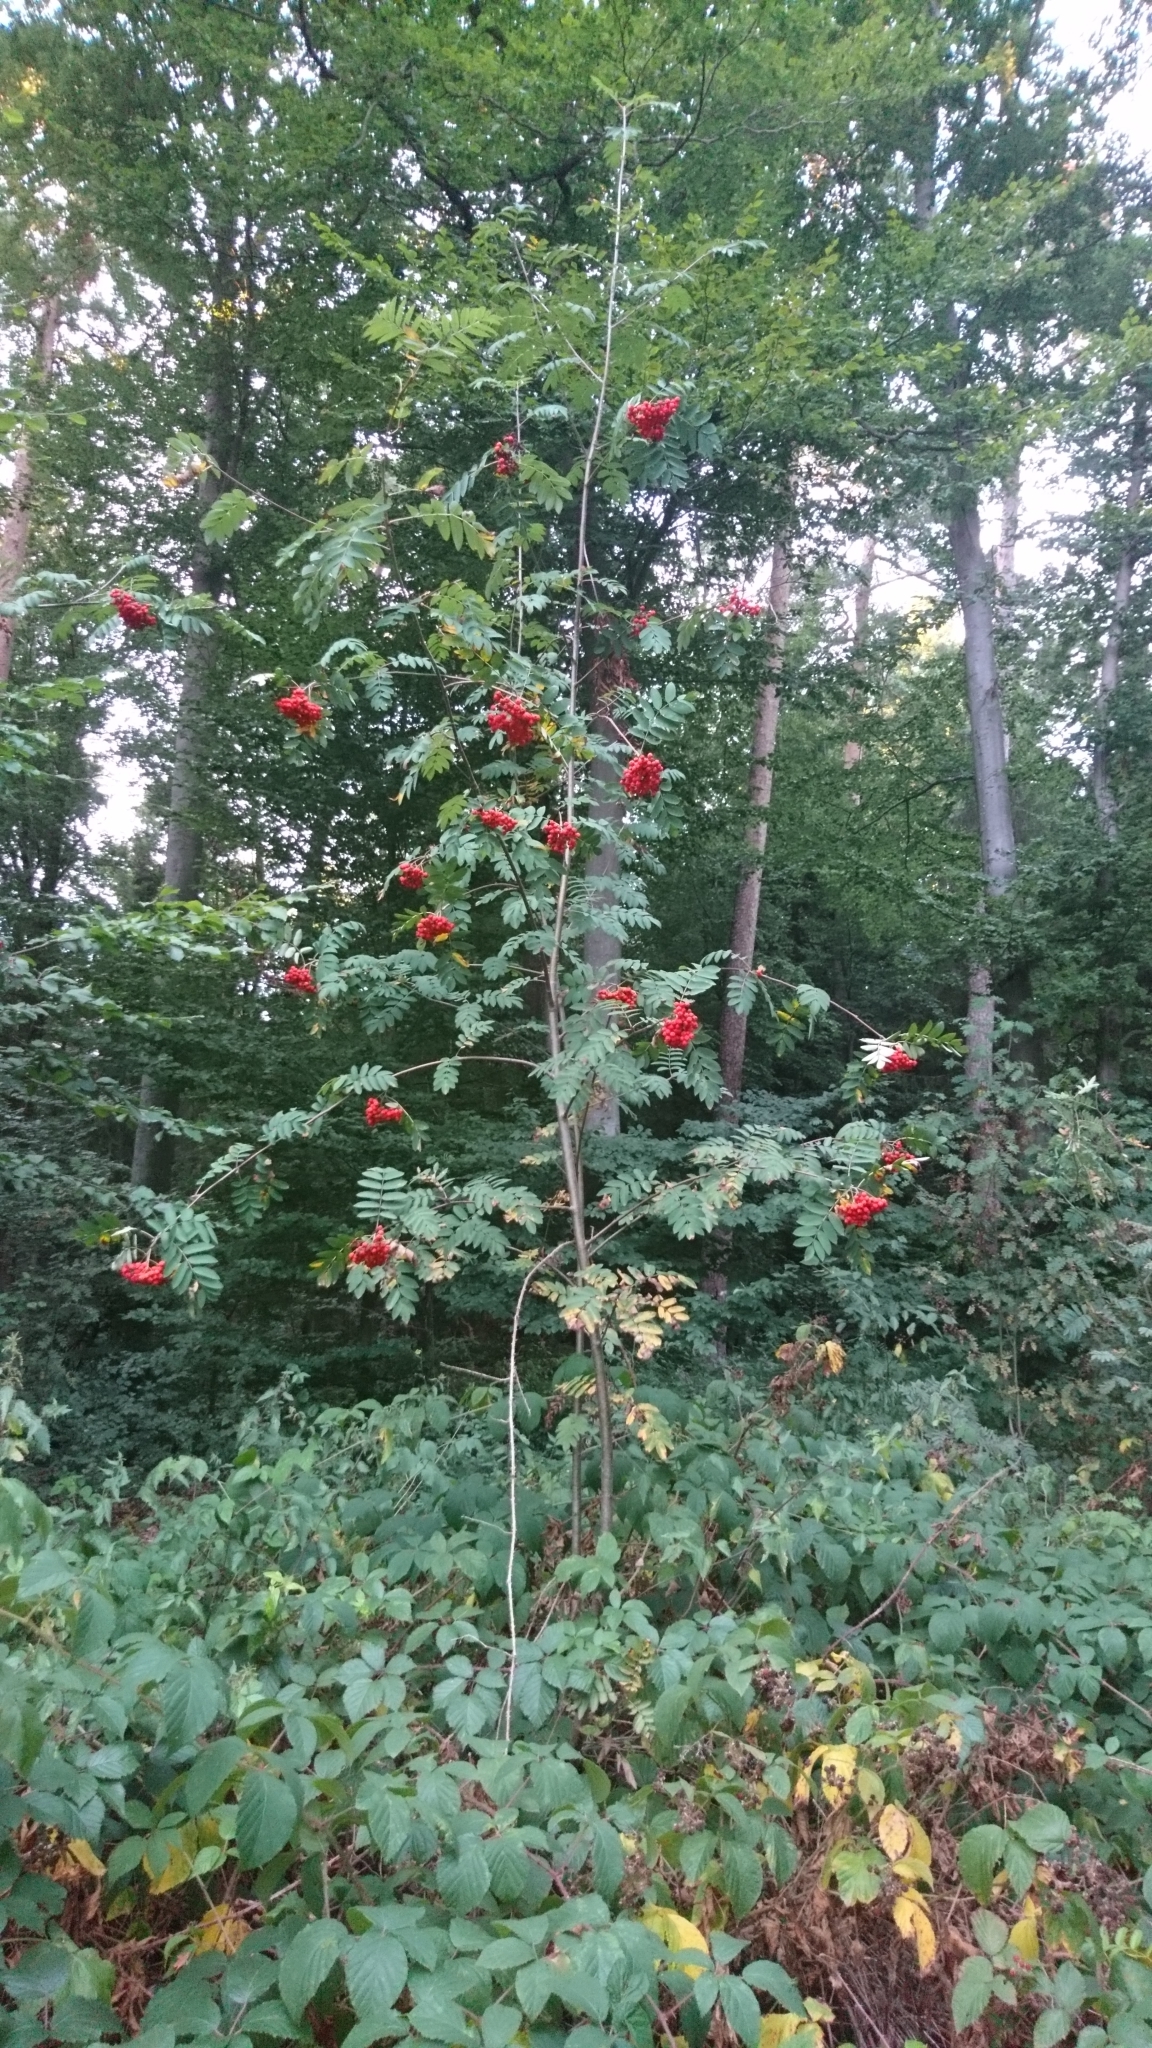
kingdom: Plantae
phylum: Tracheophyta
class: Magnoliopsida
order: Rosales
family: Rosaceae
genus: Sorbus
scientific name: Sorbus aucuparia
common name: Rowan
